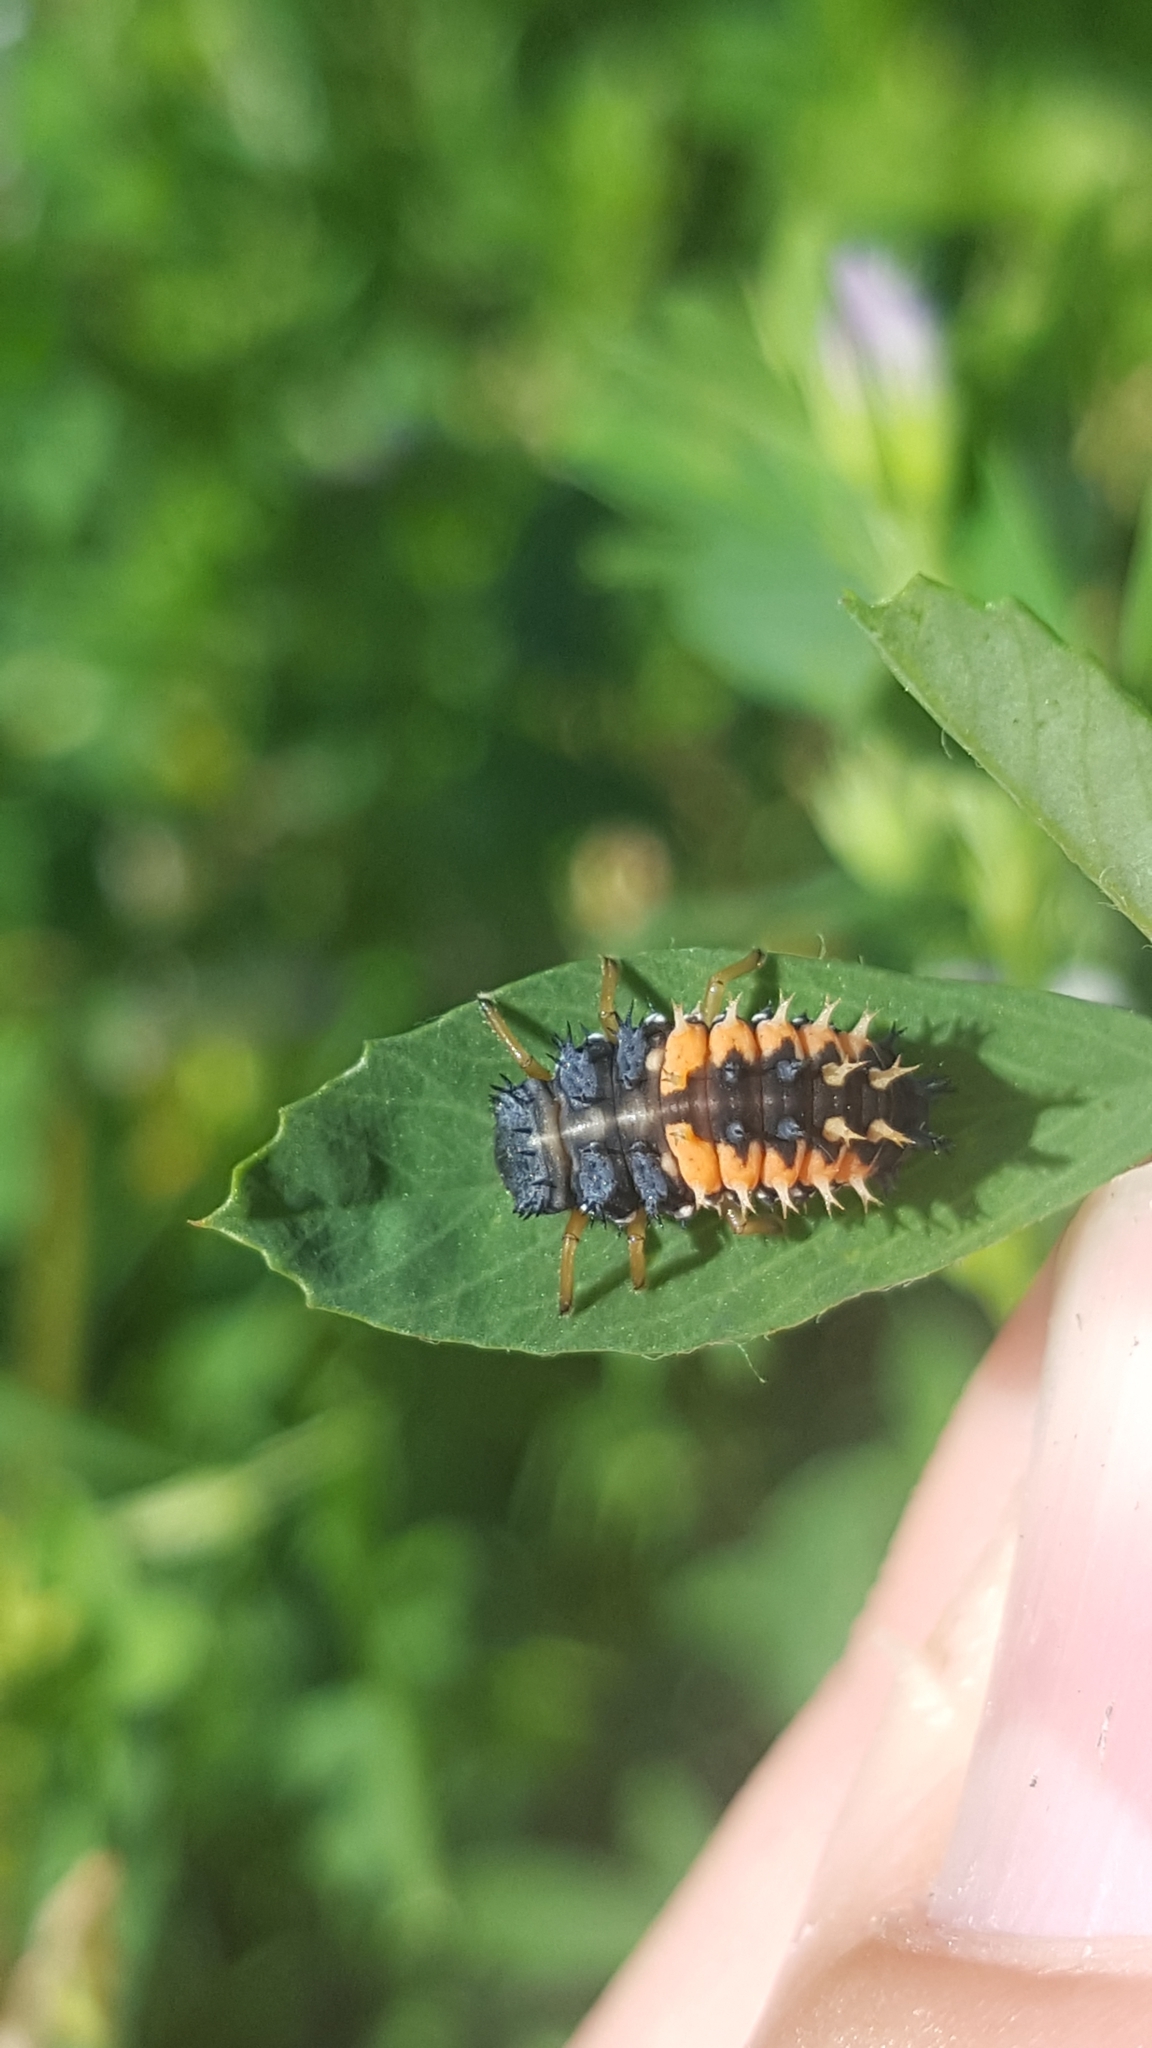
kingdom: Animalia
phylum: Arthropoda
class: Insecta
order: Coleoptera
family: Coccinellidae
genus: Harmonia
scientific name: Harmonia axyridis
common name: Harlequin ladybird
